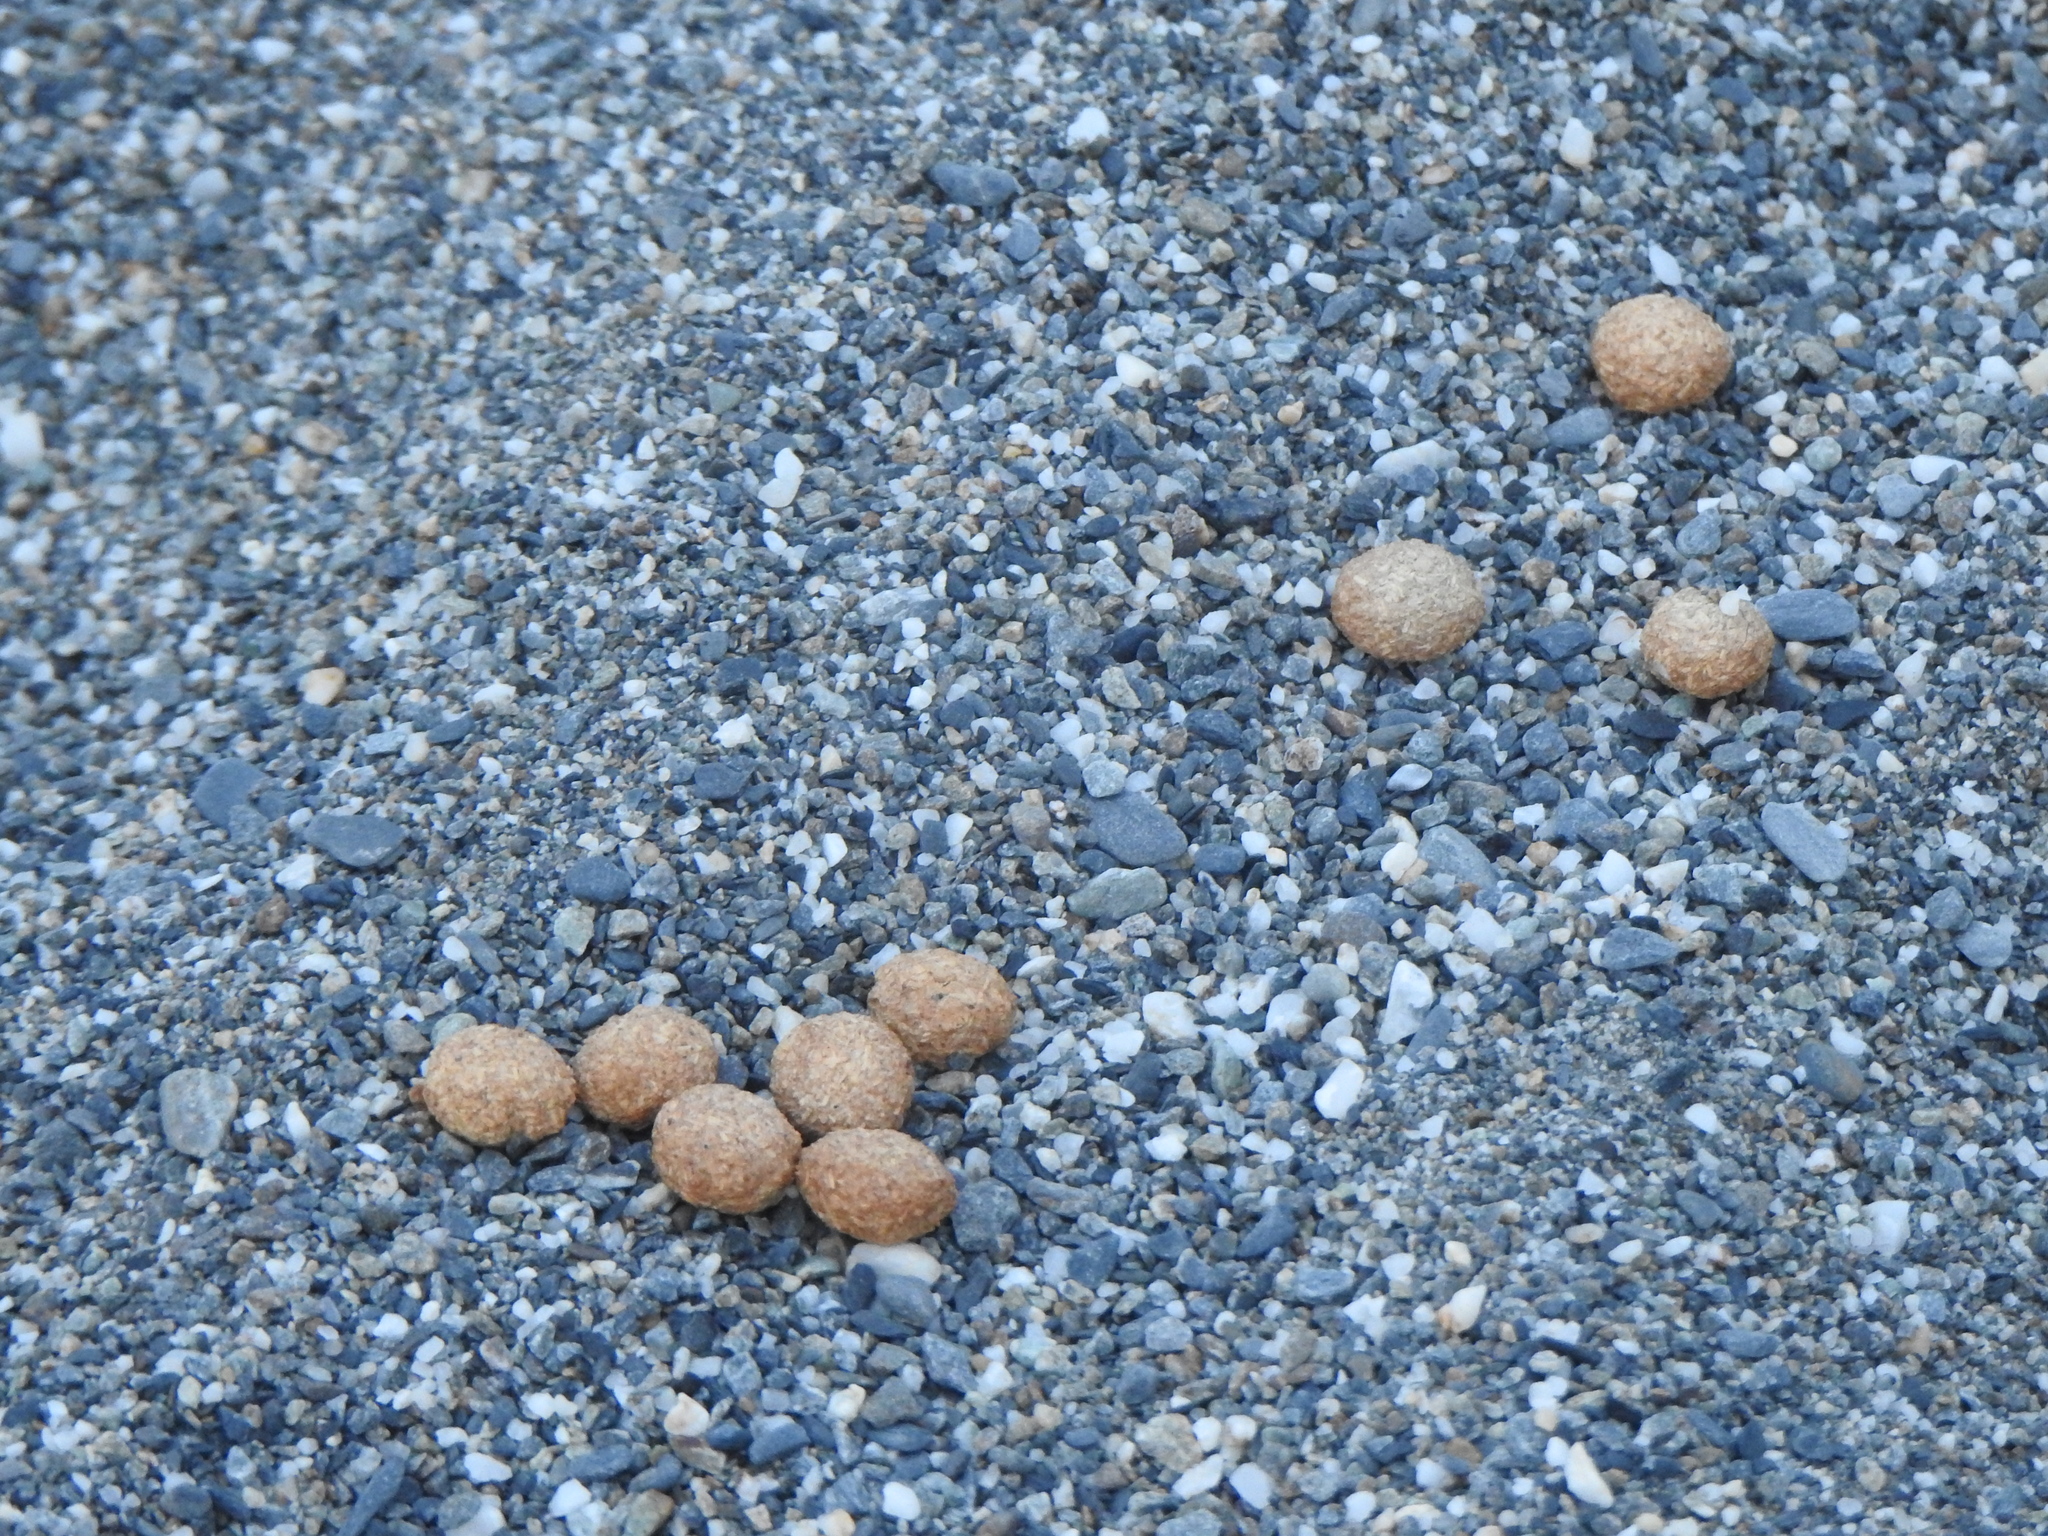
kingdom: Animalia
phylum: Chordata
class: Mammalia
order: Lagomorpha
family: Leporidae
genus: Lepus
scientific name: Lepus sinensis
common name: Chinese hare
